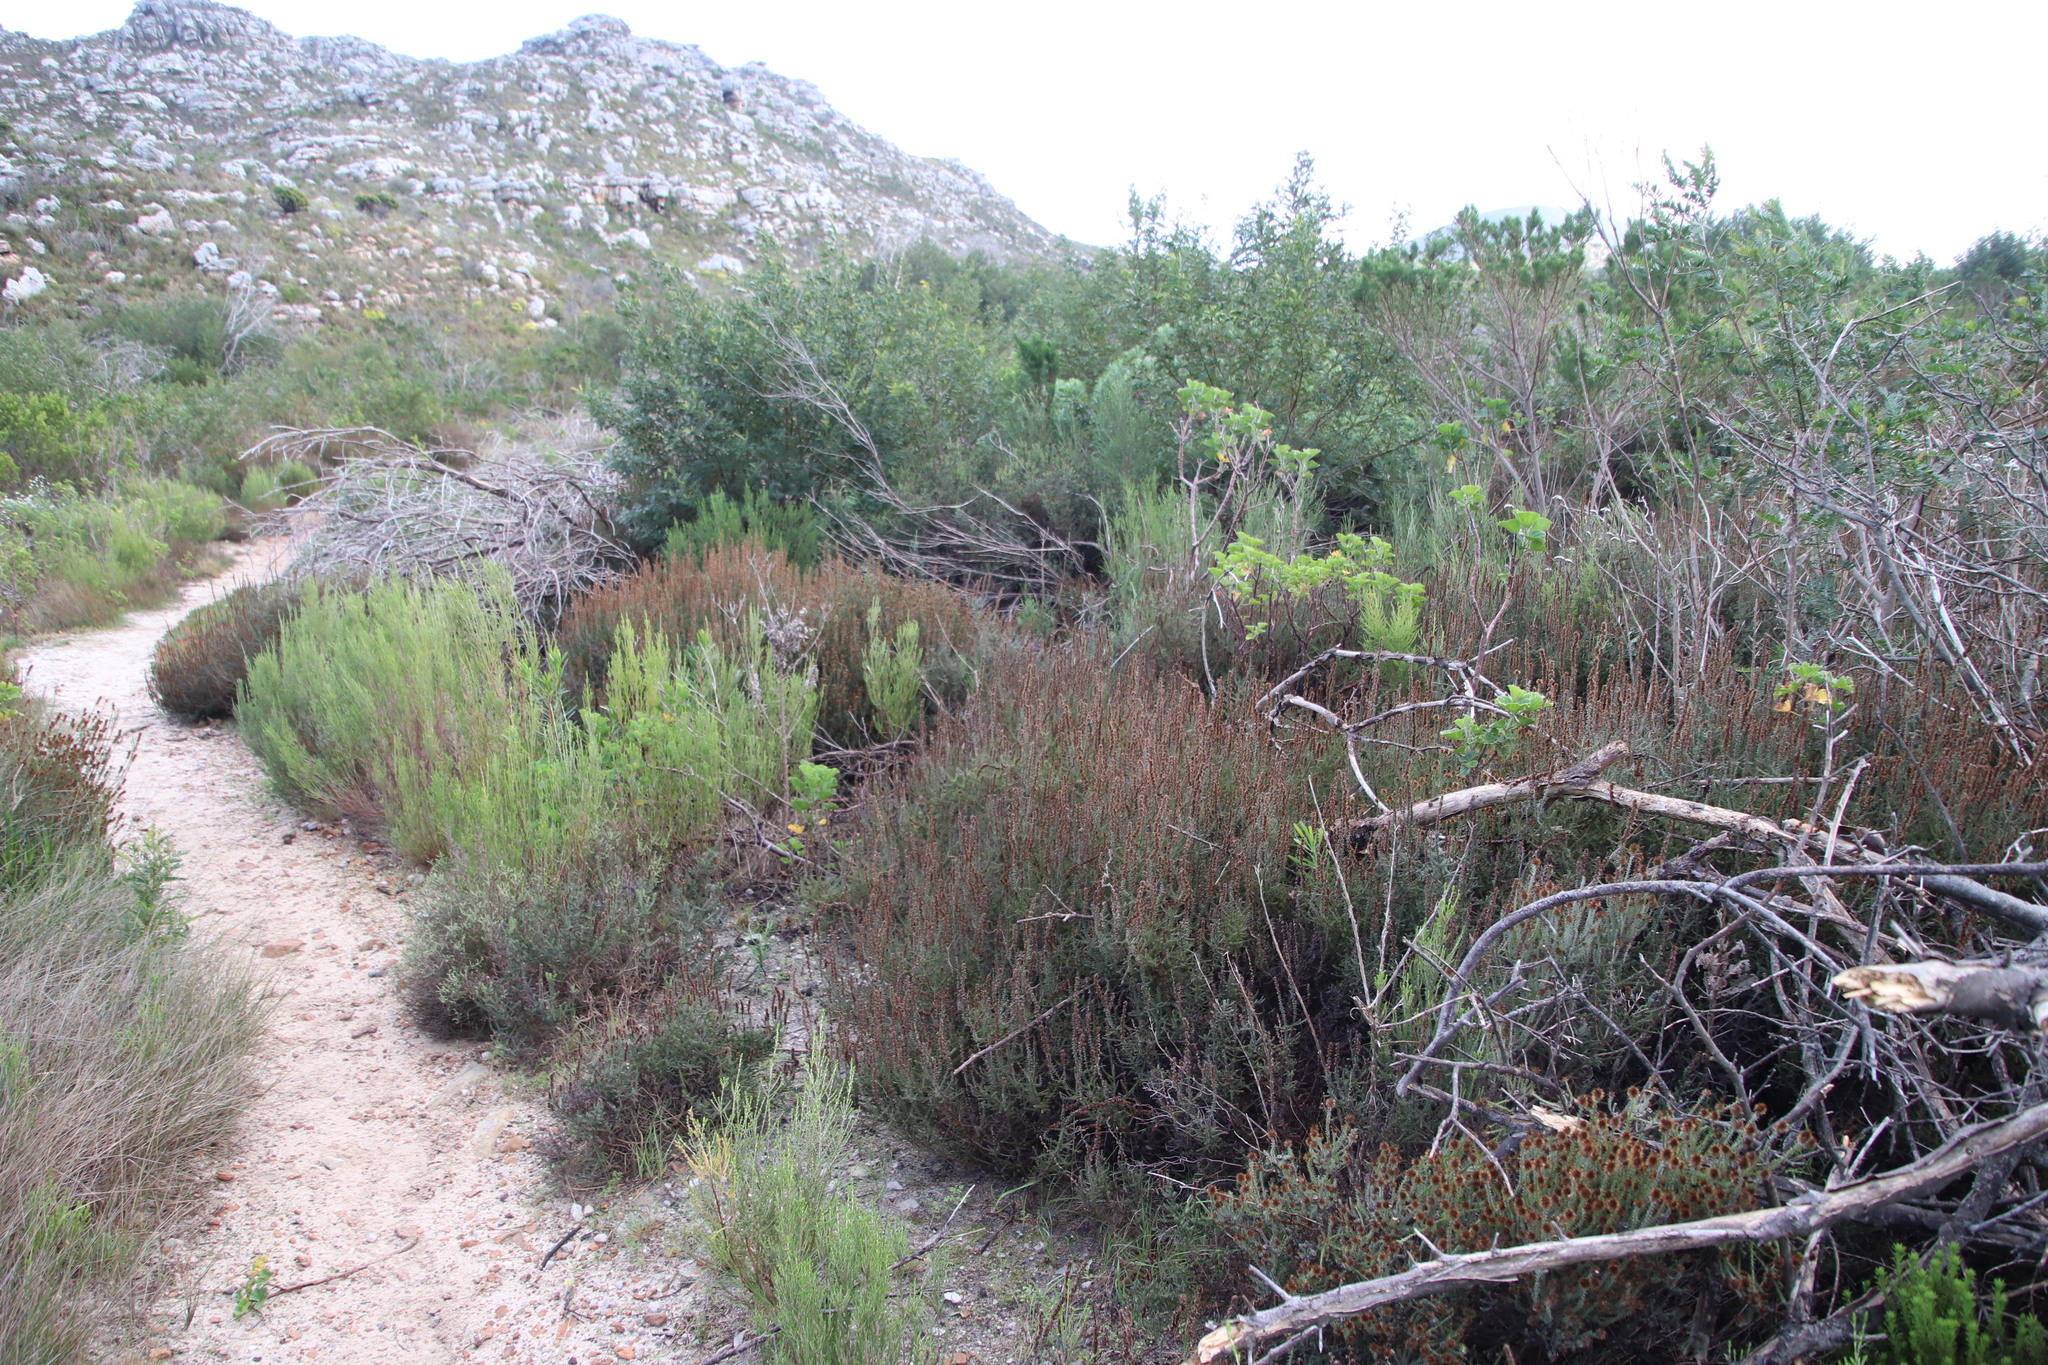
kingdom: Plantae
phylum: Tracheophyta
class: Magnoliopsida
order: Asterales
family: Asteraceae
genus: Seriphium
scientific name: Seriphium cinereum
